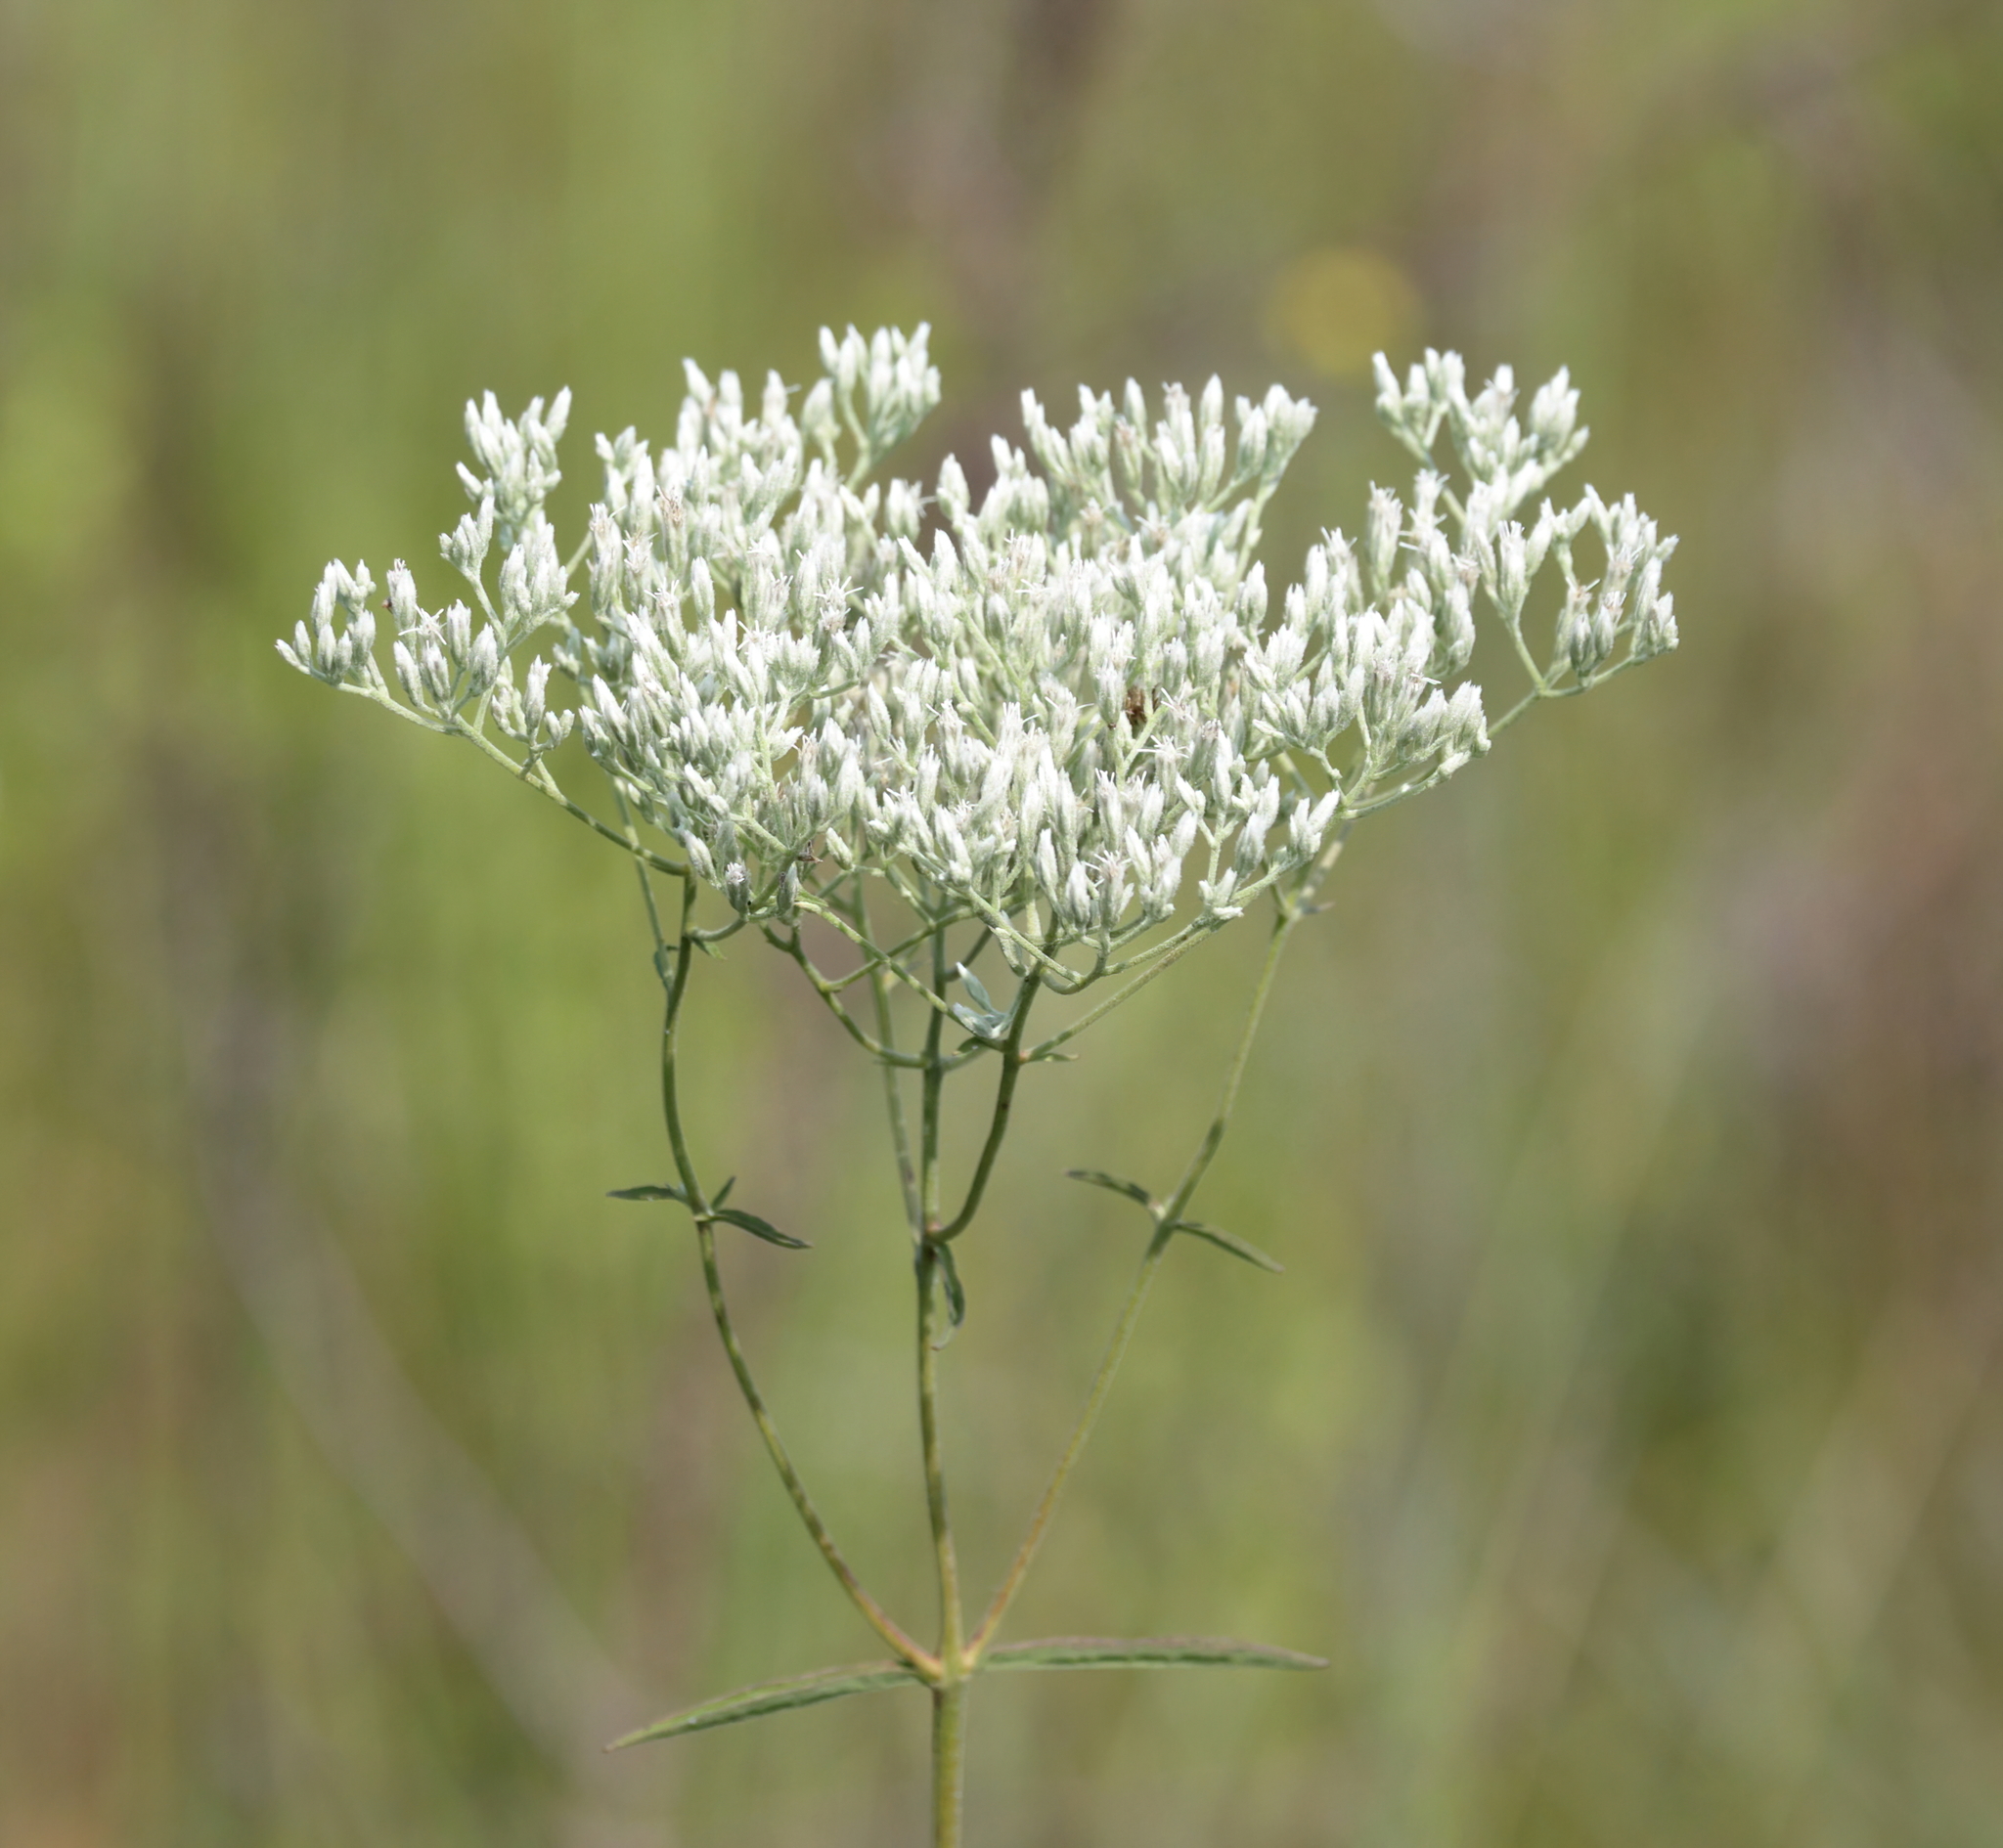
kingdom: Plantae
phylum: Tracheophyta
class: Magnoliopsida
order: Asterales
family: Asteraceae
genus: Eupatorium
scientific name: Eupatorium leucolepis
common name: Justiceweed
